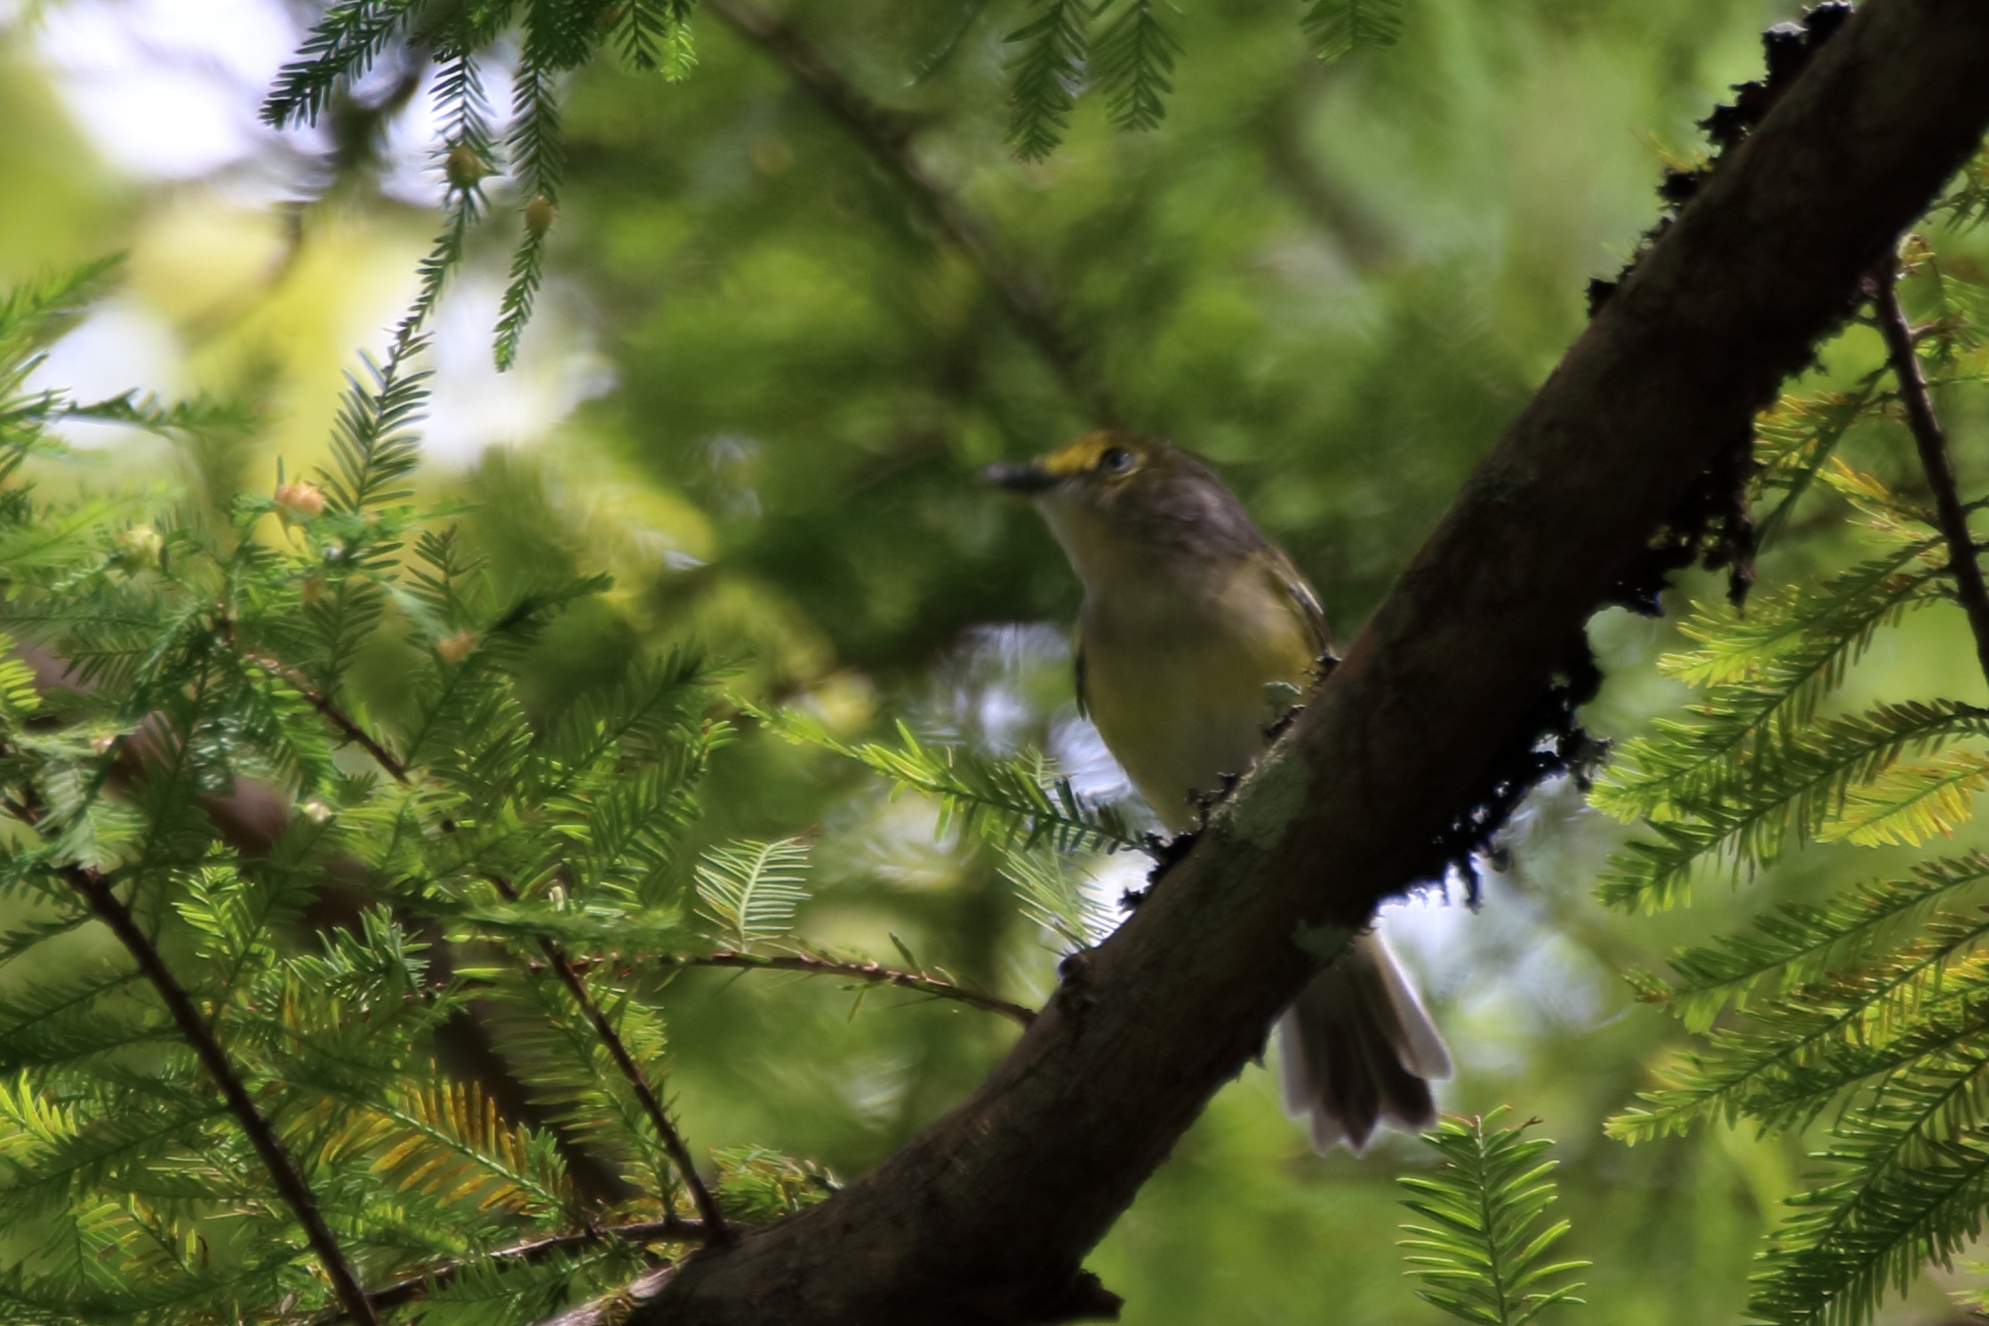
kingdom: Animalia
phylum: Chordata
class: Aves
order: Passeriformes
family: Vireonidae
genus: Vireo
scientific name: Vireo griseus
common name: White-eyed vireo
